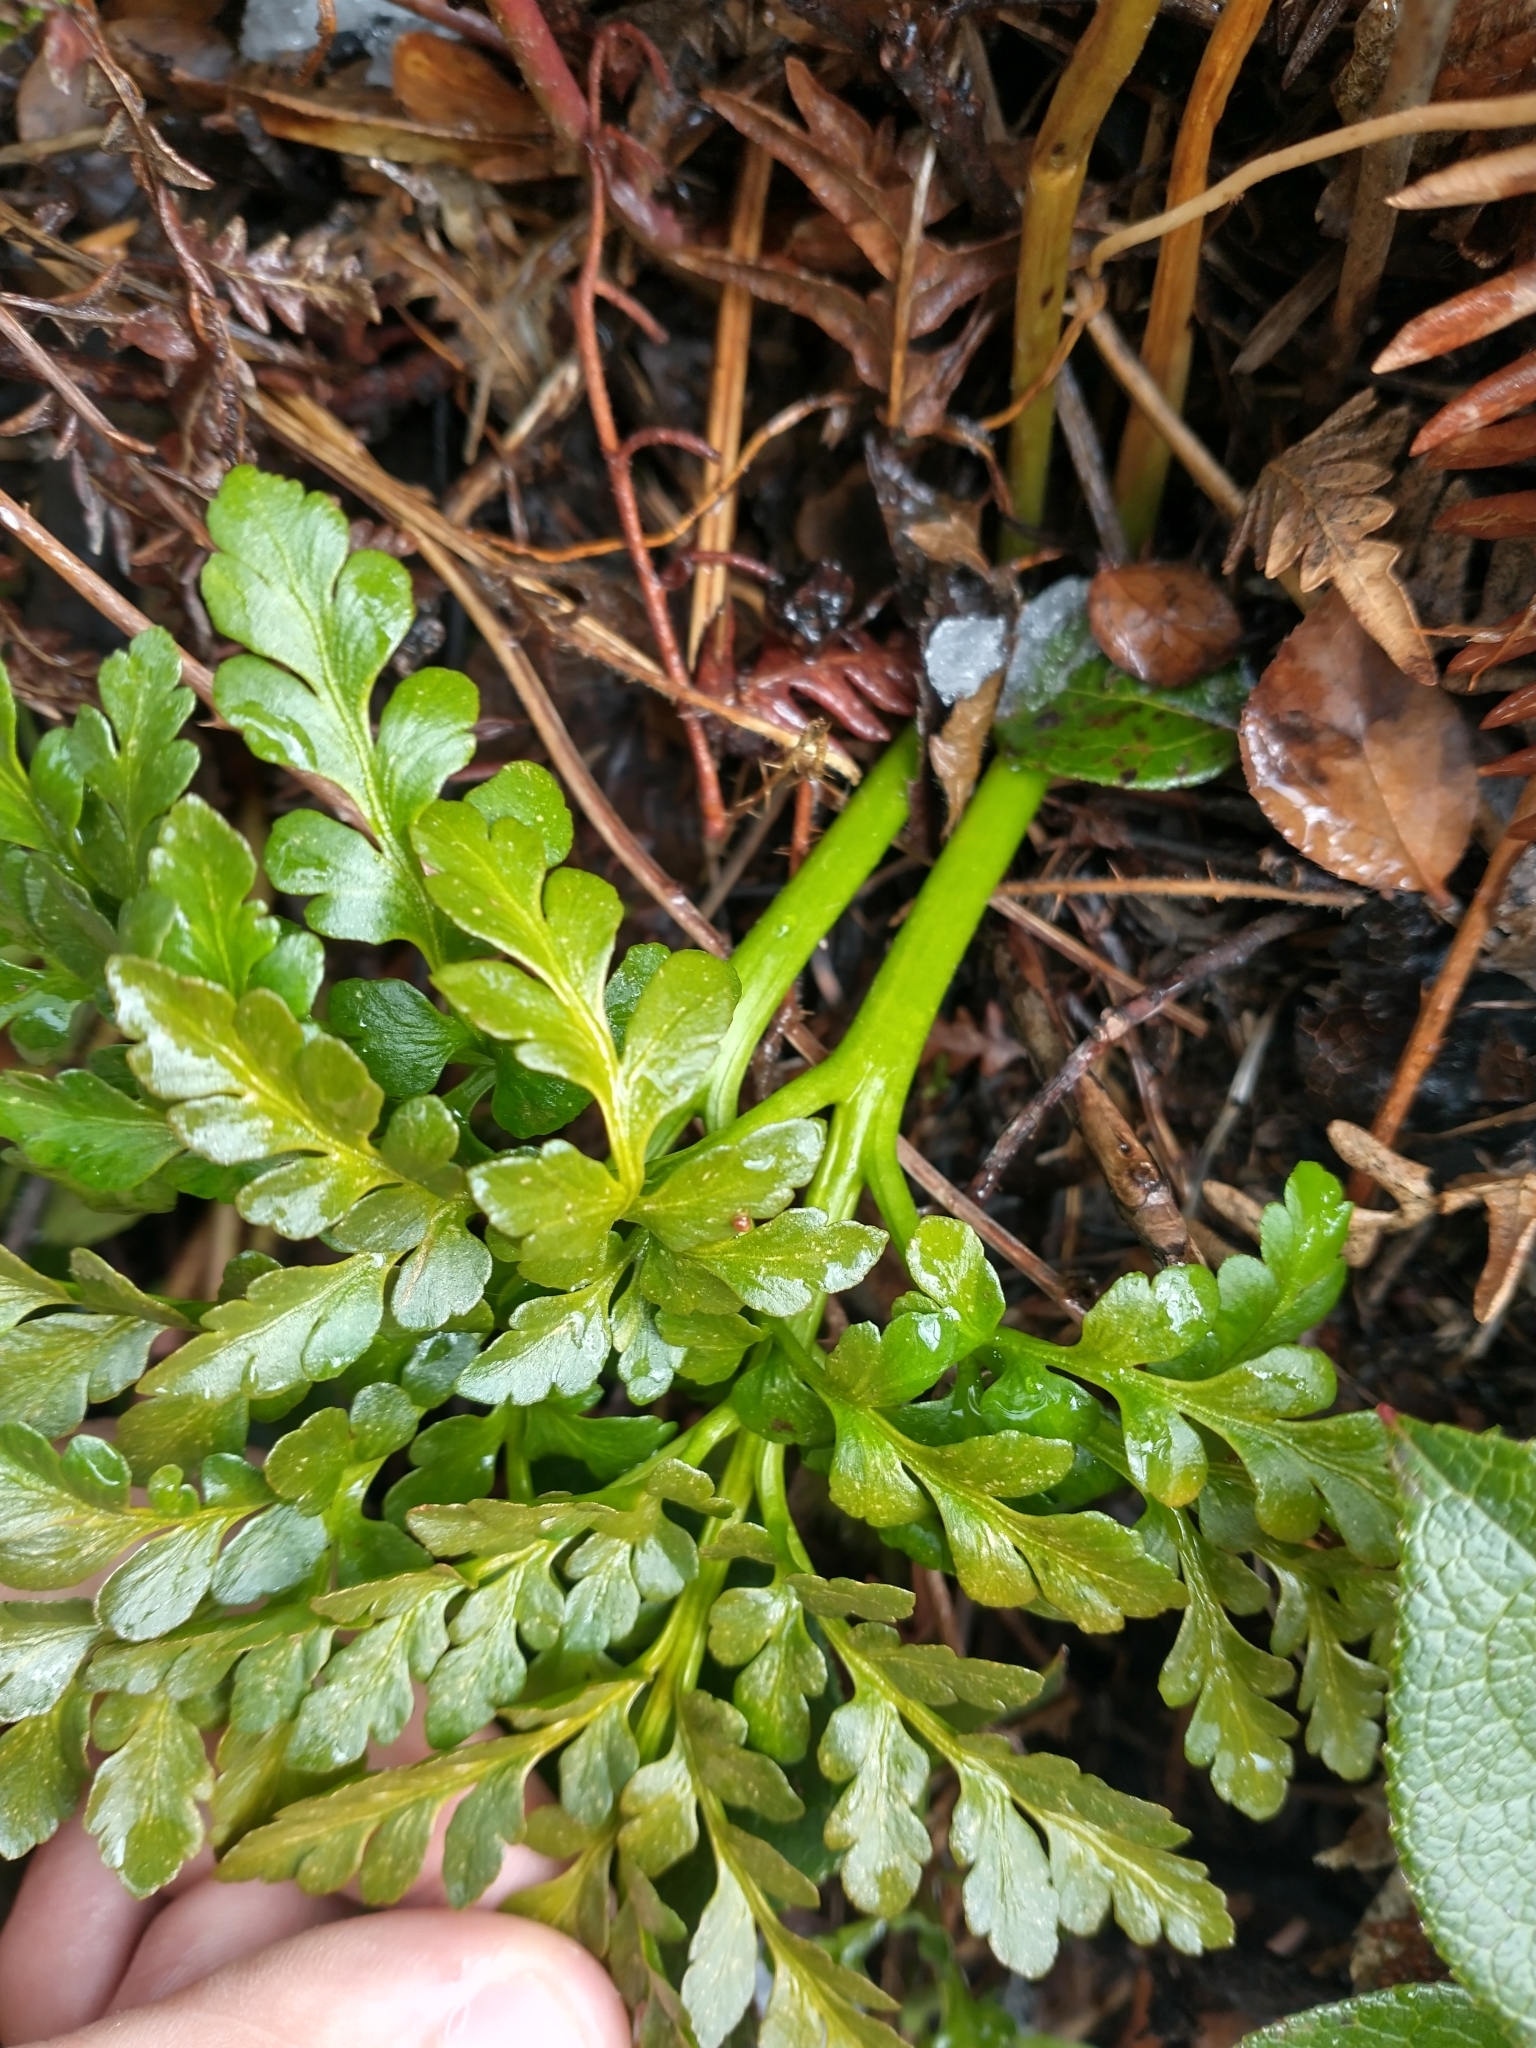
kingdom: Plantae
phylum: Tracheophyta
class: Polypodiopsida
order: Ophioglossales
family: Ophioglossaceae
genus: Sceptridium
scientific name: Sceptridium multifidum
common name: Leathery grape fern
